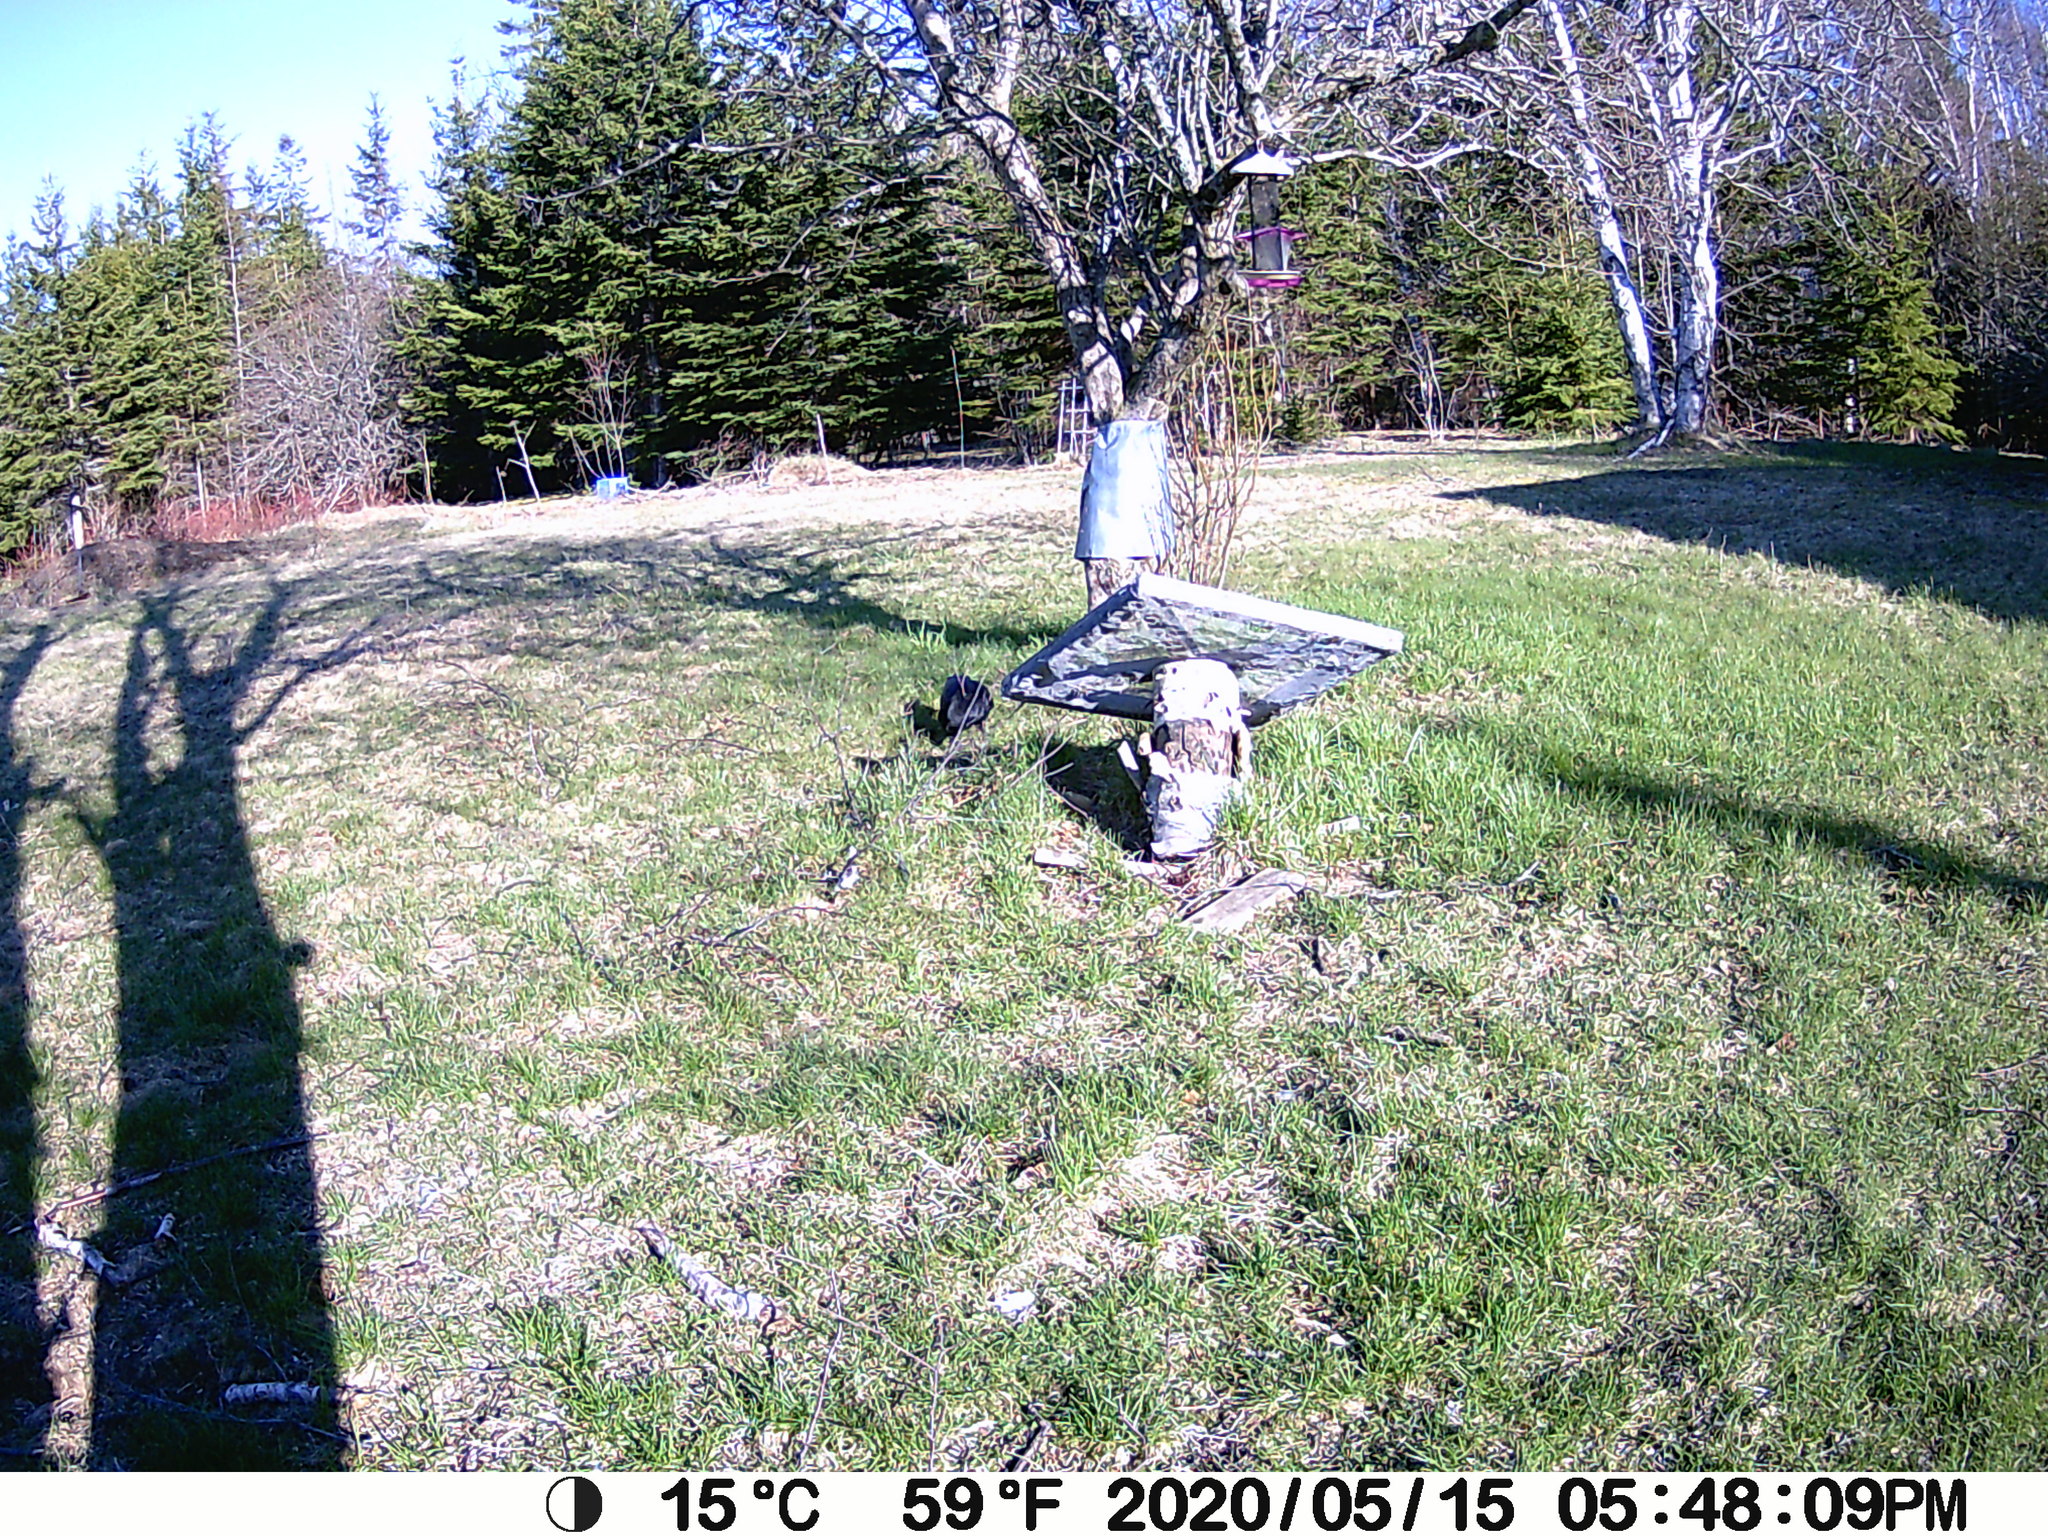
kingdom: Animalia
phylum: Chordata
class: Aves
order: Passeriformes
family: Corvidae
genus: Corvus
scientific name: Corvus brachyrhynchos
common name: American crow
